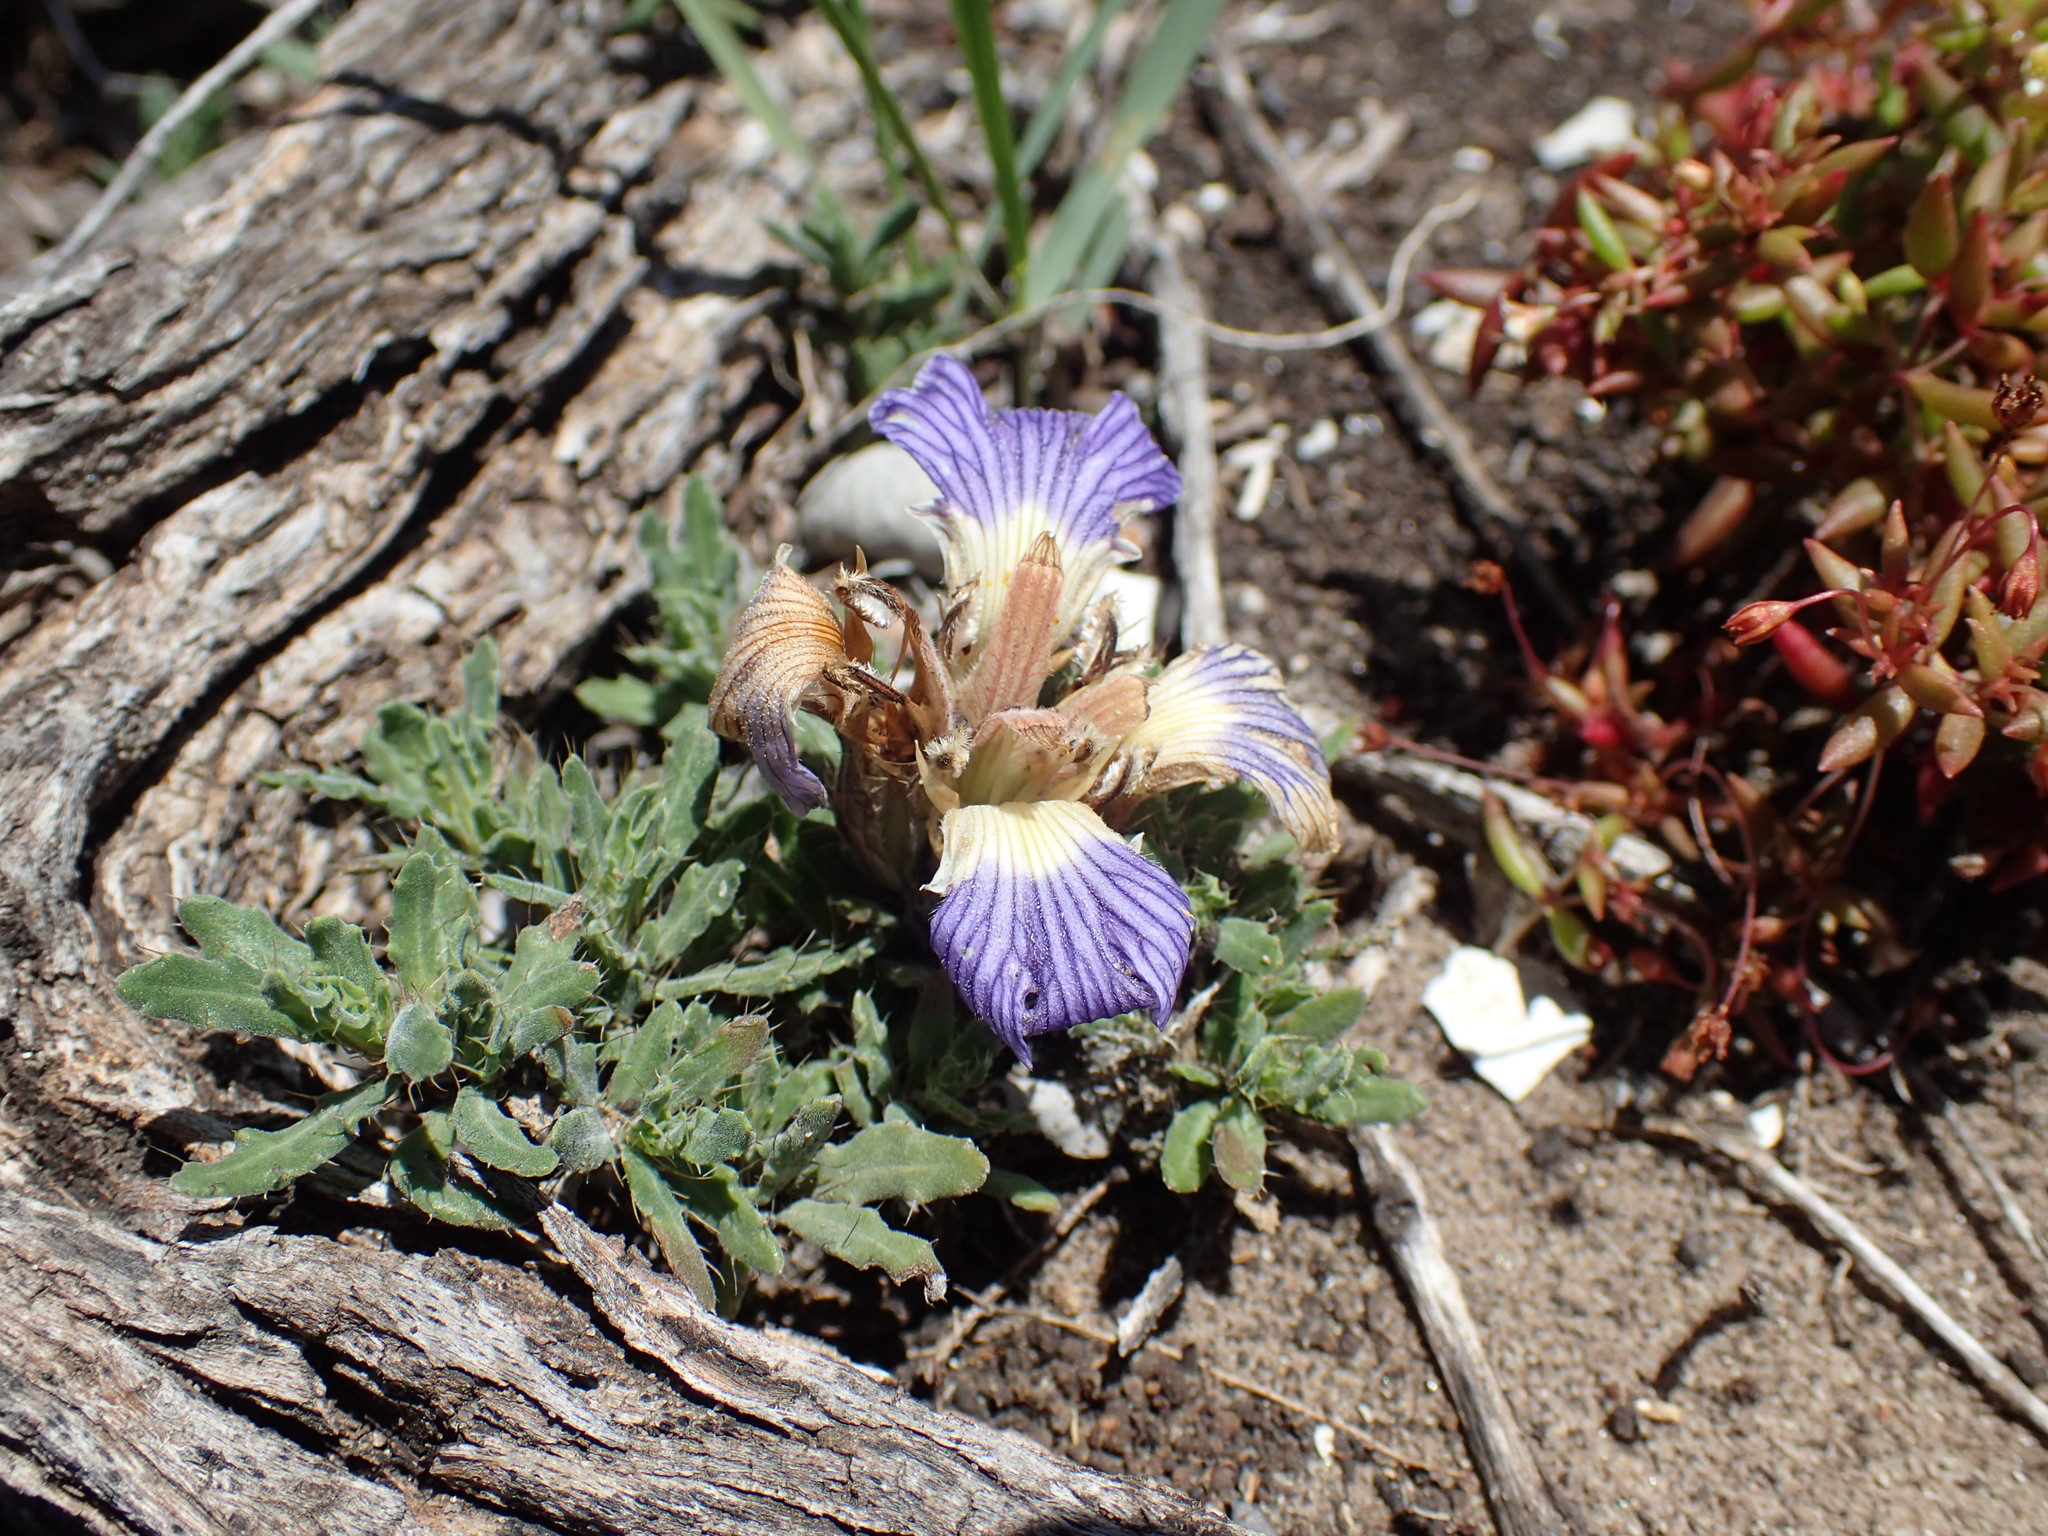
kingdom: Plantae
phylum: Tracheophyta
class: Magnoliopsida
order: Lamiales
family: Acanthaceae
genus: Blepharis
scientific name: Blepharis procumbens
